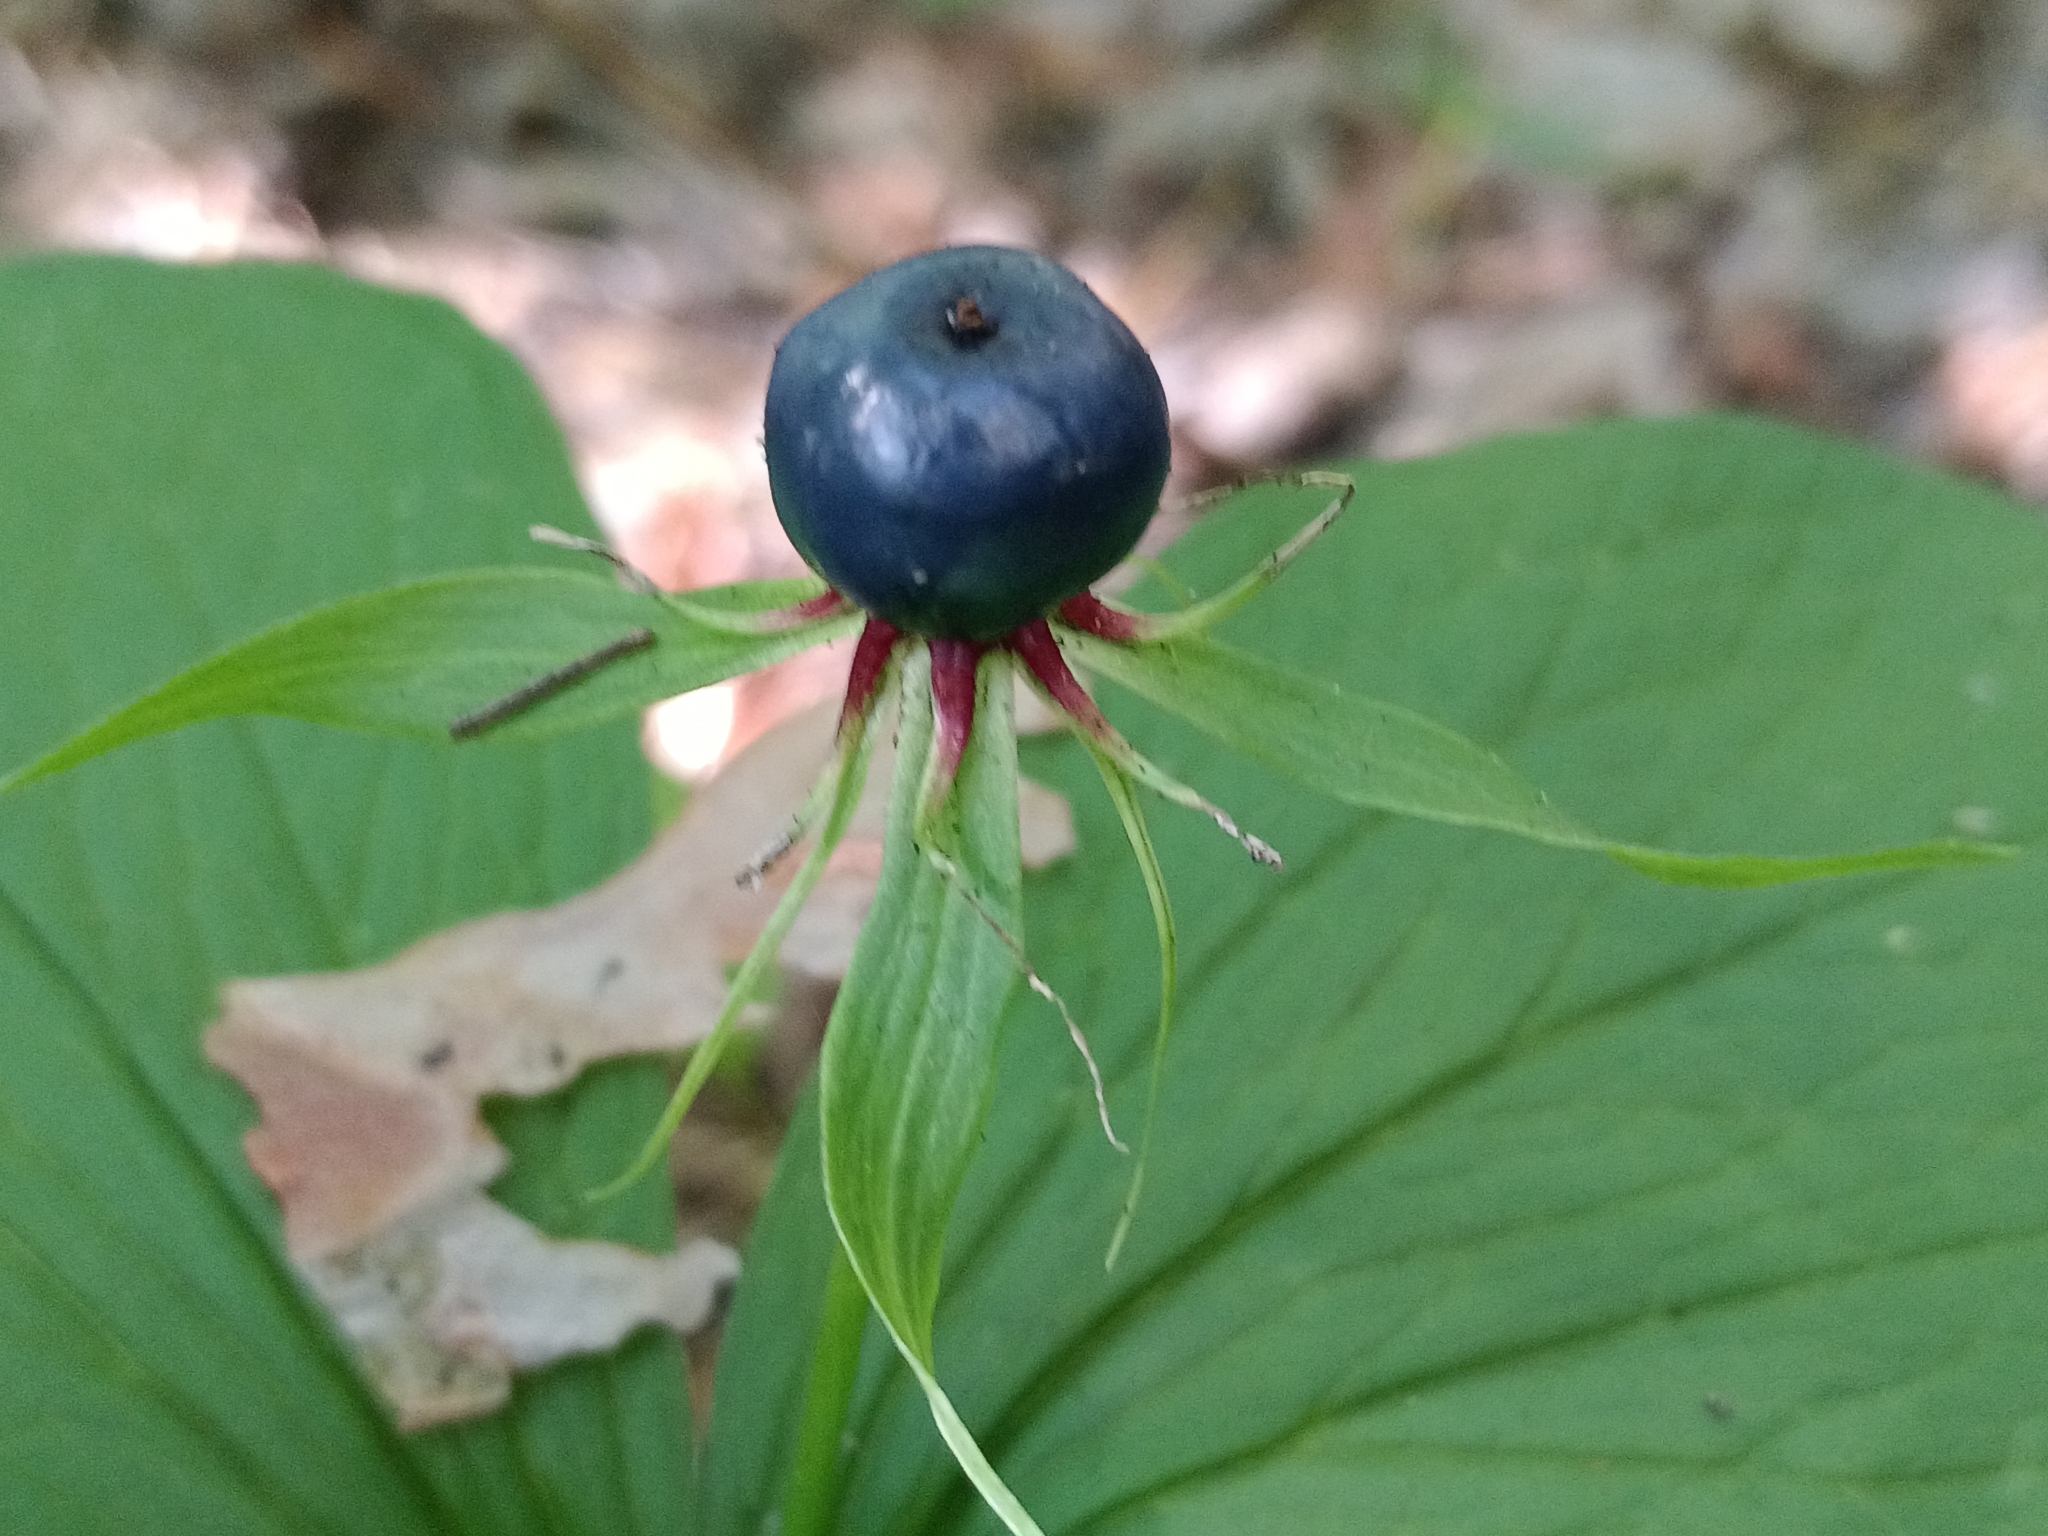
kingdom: Plantae
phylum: Tracheophyta
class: Liliopsida
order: Liliales
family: Melanthiaceae
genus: Paris
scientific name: Paris quadrifolia
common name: Herb-paris
